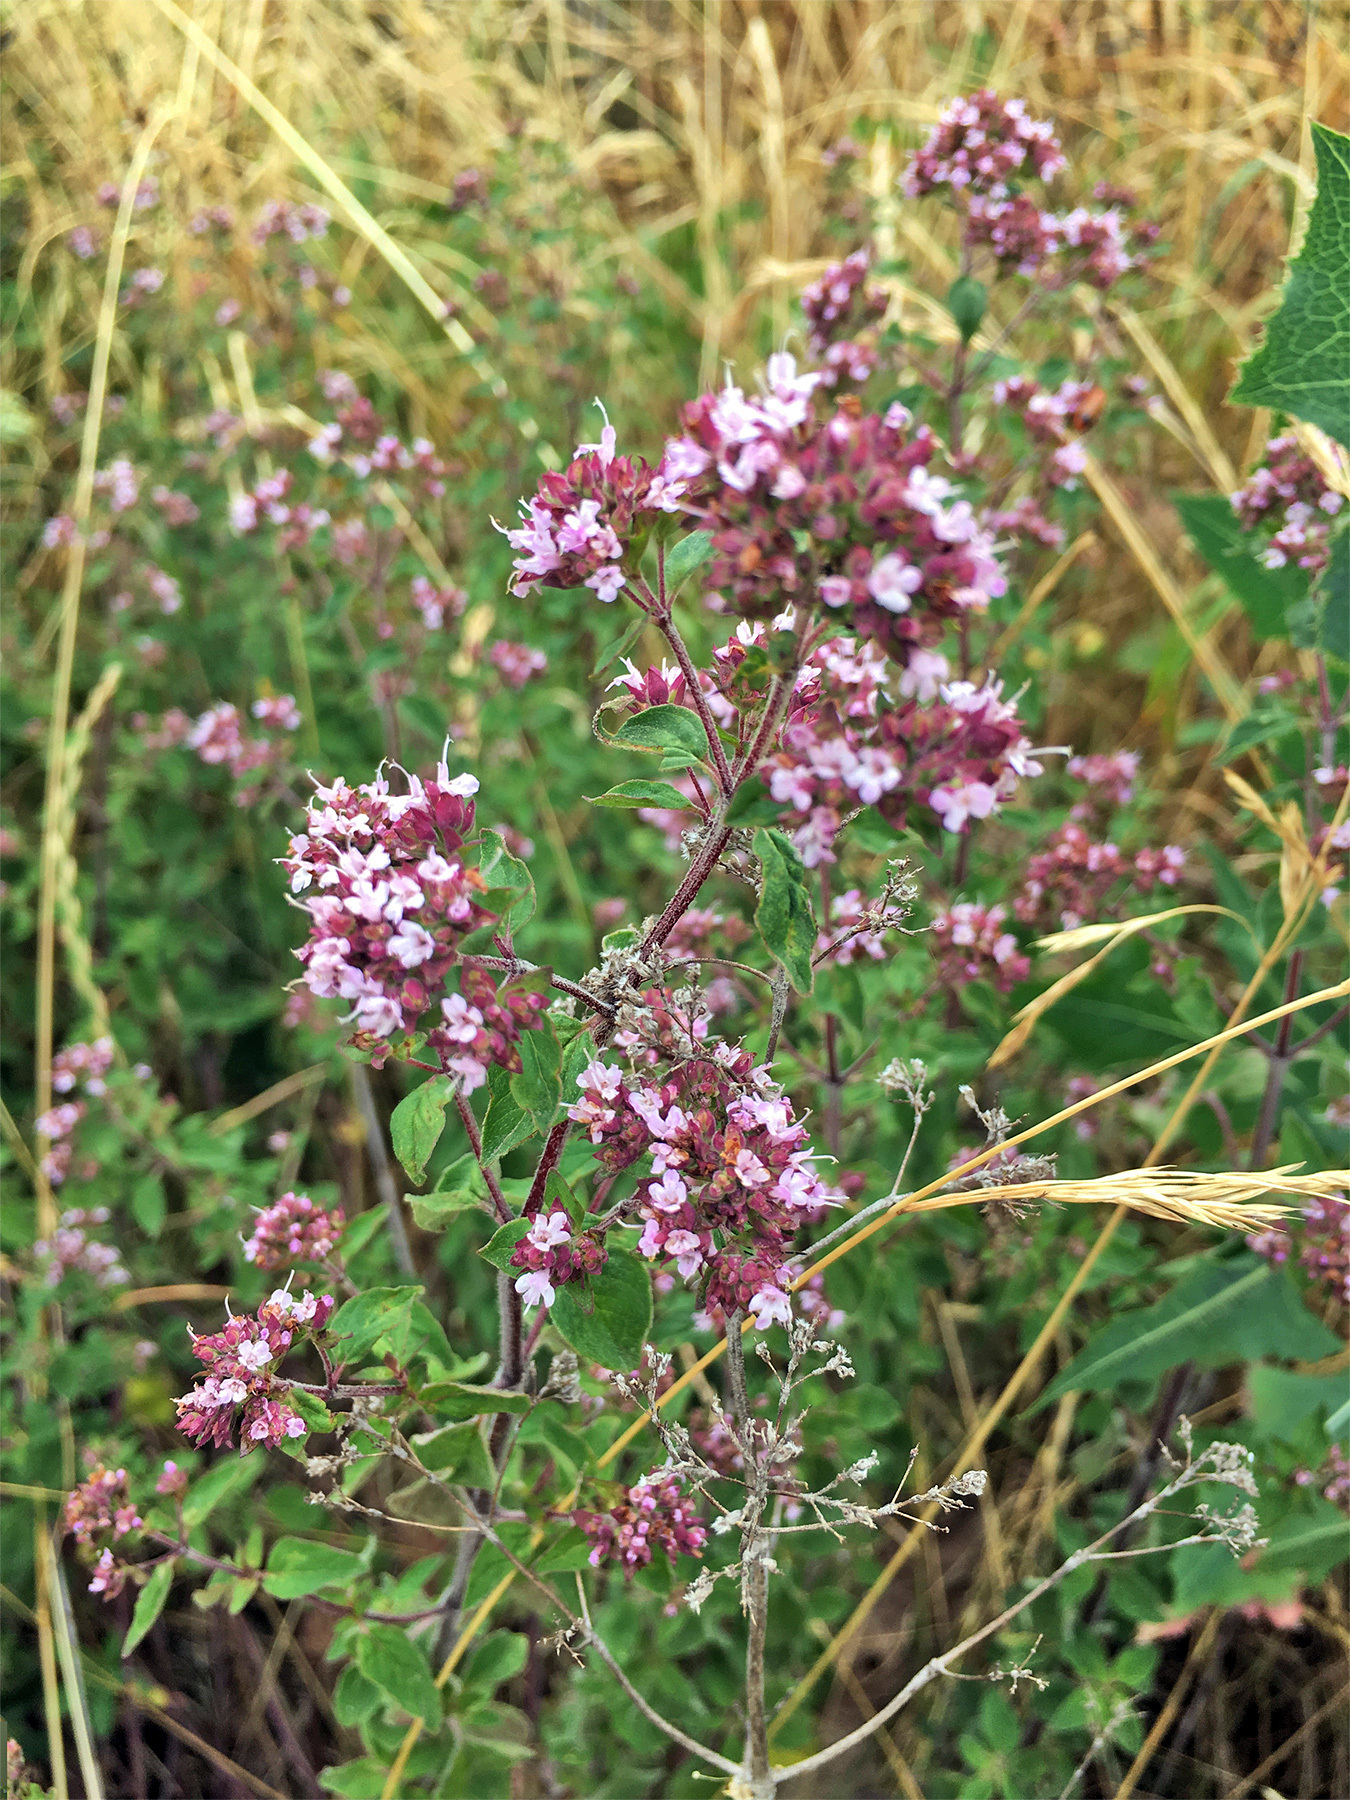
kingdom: Plantae
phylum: Tracheophyta
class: Magnoliopsida
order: Lamiales
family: Lamiaceae
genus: Origanum
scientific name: Origanum vulgare
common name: Wild marjoram
